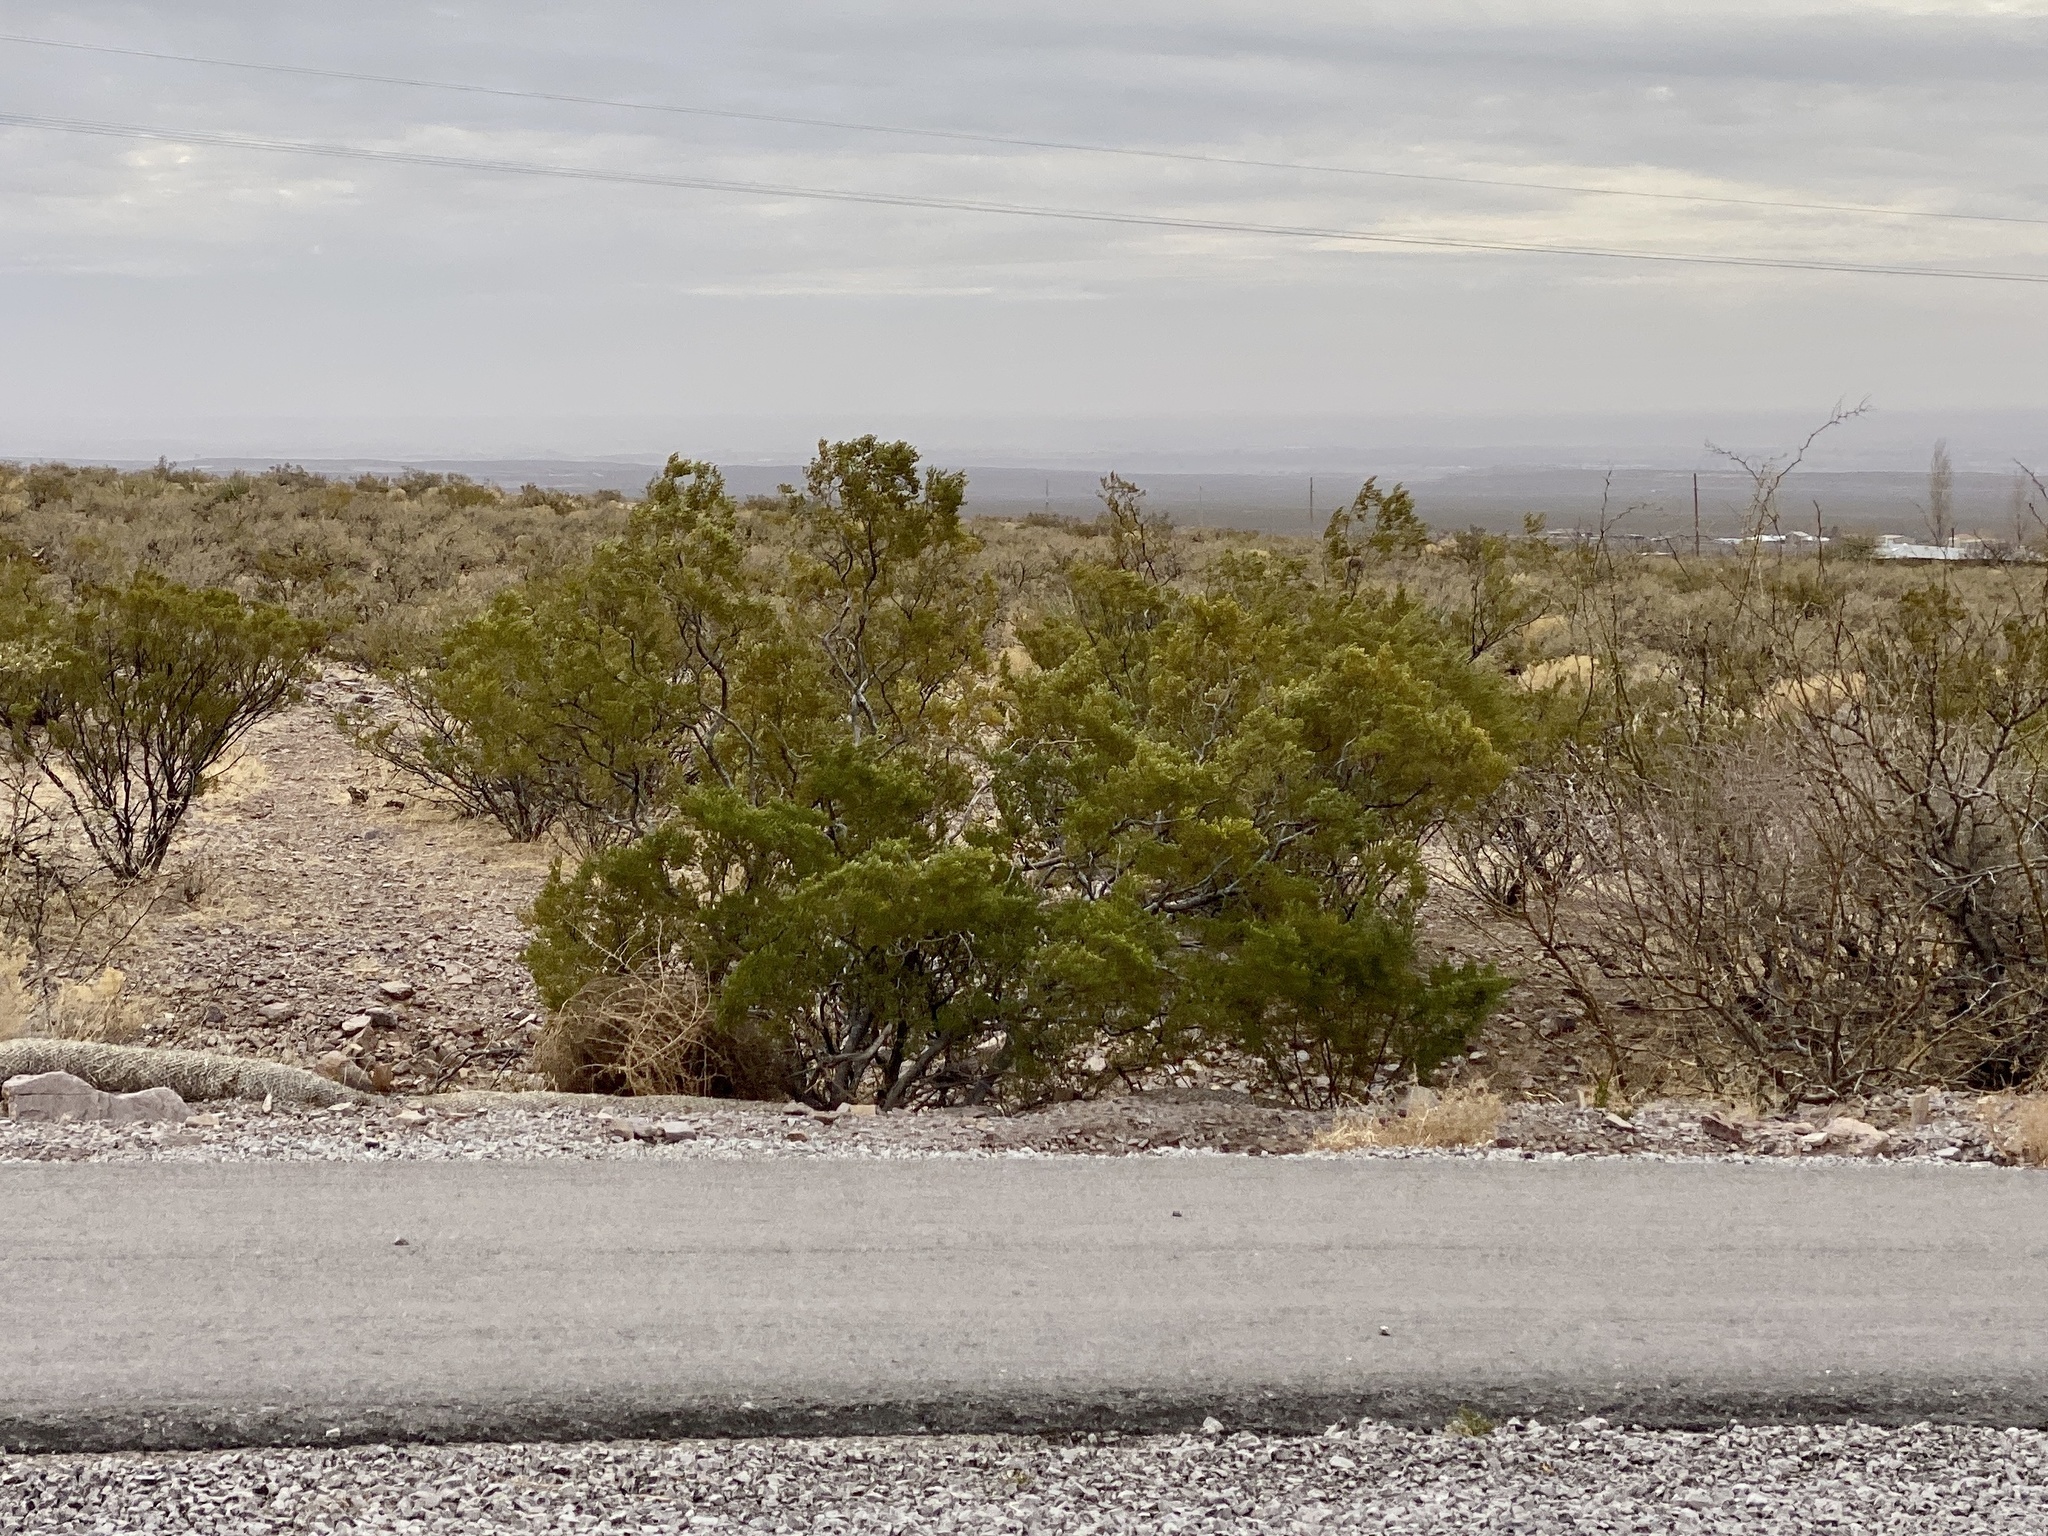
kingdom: Plantae
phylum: Tracheophyta
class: Magnoliopsida
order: Zygophyllales
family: Zygophyllaceae
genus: Larrea
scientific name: Larrea tridentata
